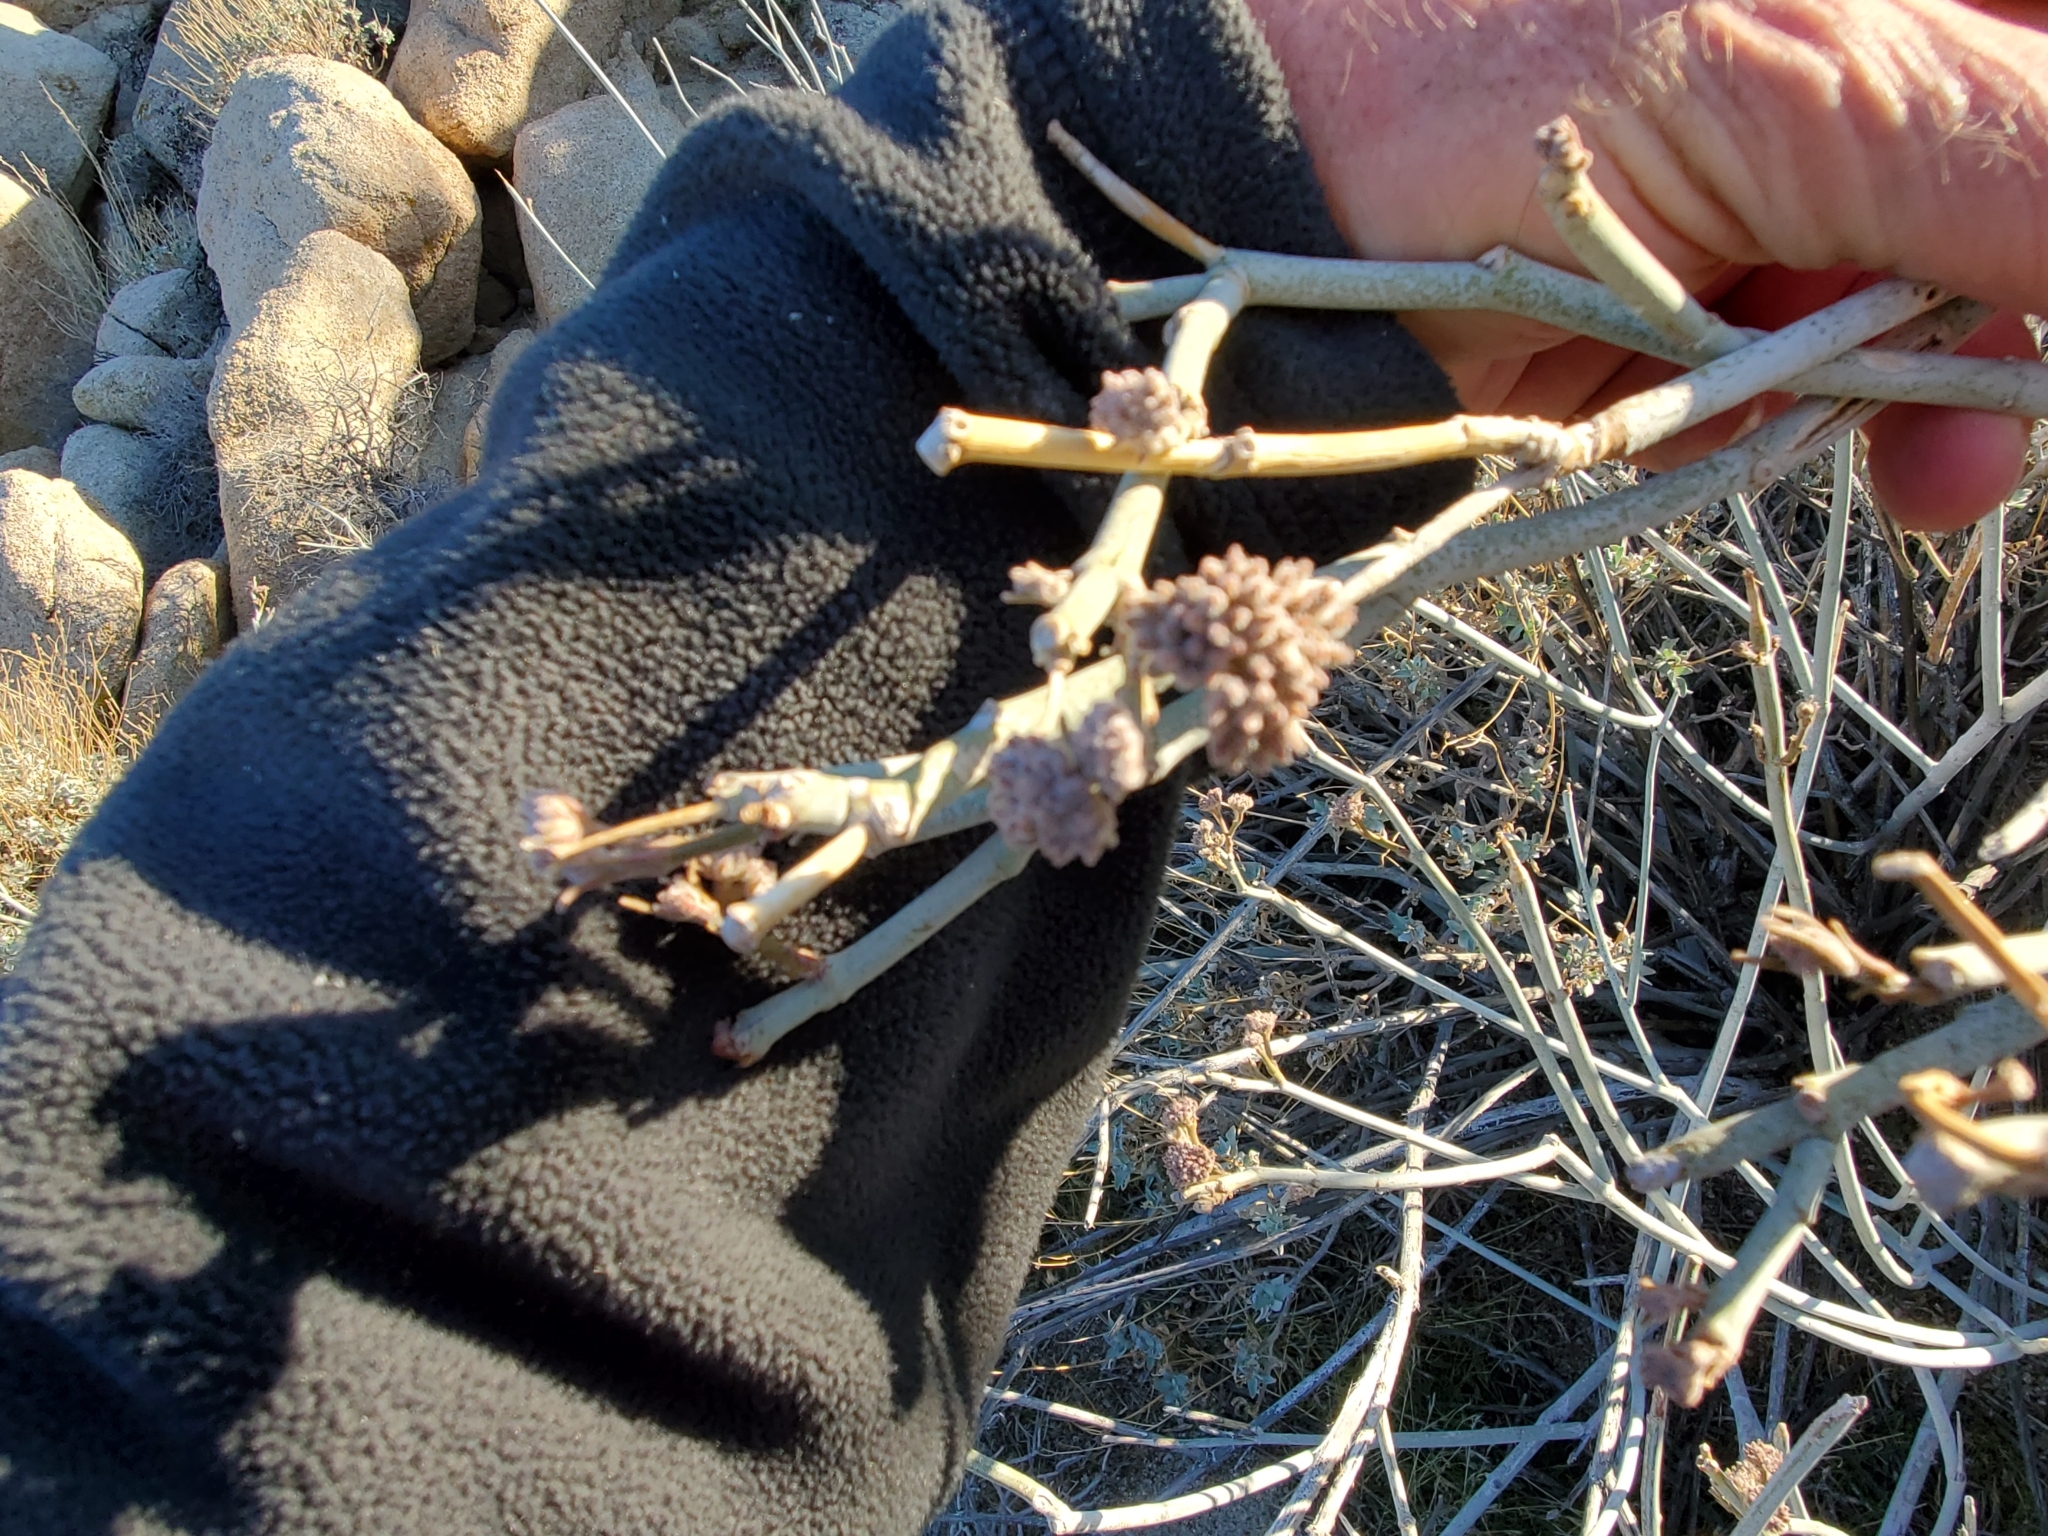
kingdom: Plantae
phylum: Tracheophyta
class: Magnoliopsida
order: Gentianales
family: Apocynaceae
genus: Asclepias
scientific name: Asclepias albicans
